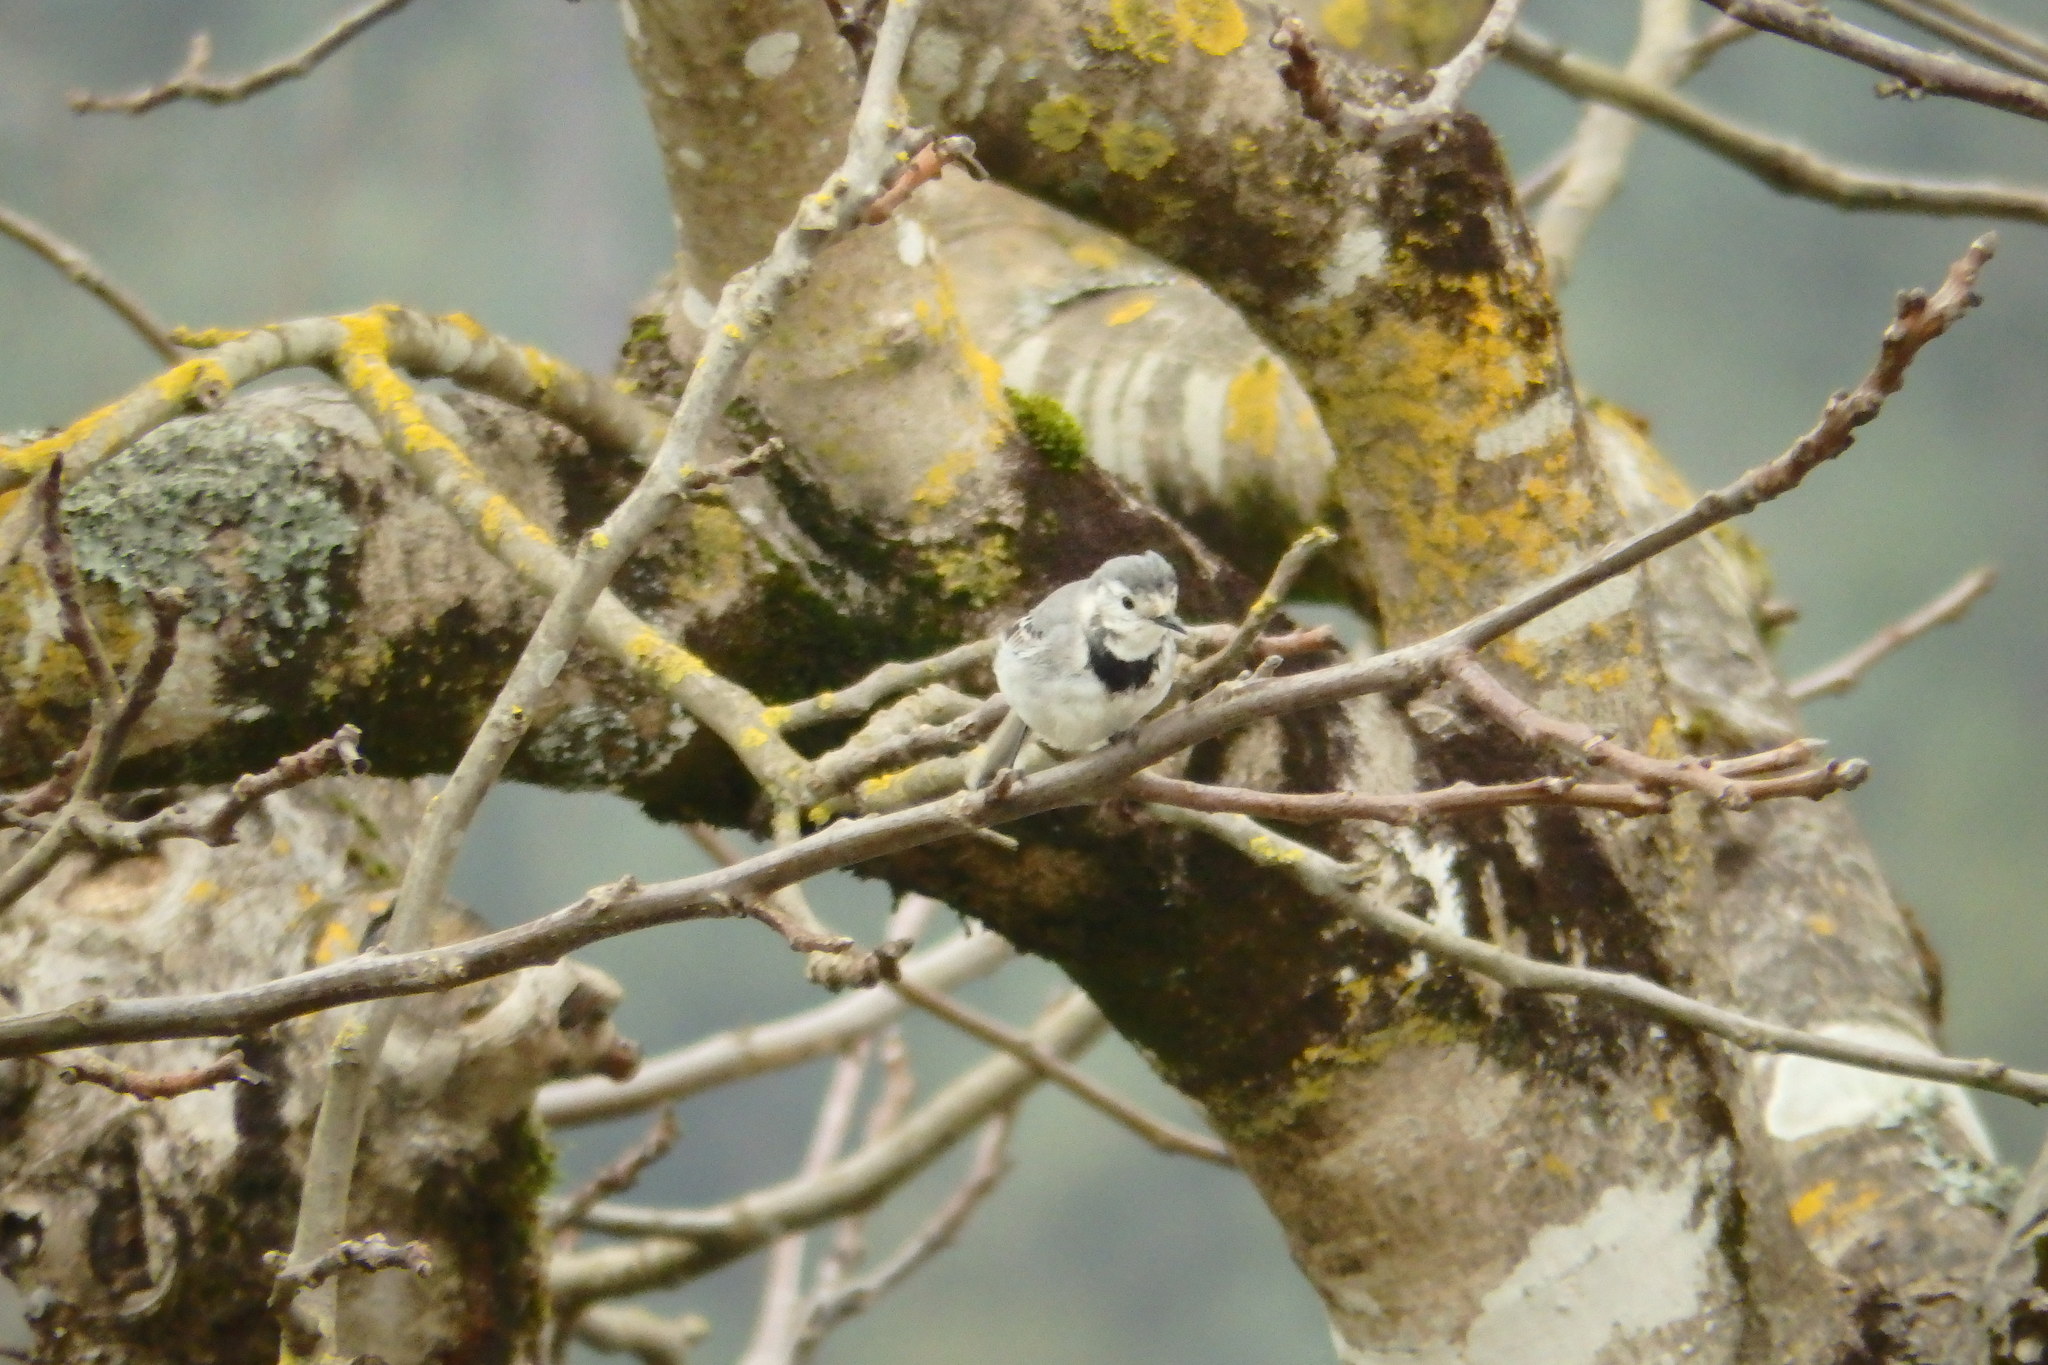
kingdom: Animalia
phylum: Chordata
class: Aves
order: Passeriformes
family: Motacillidae
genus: Motacilla
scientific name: Motacilla alba
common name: White wagtail
